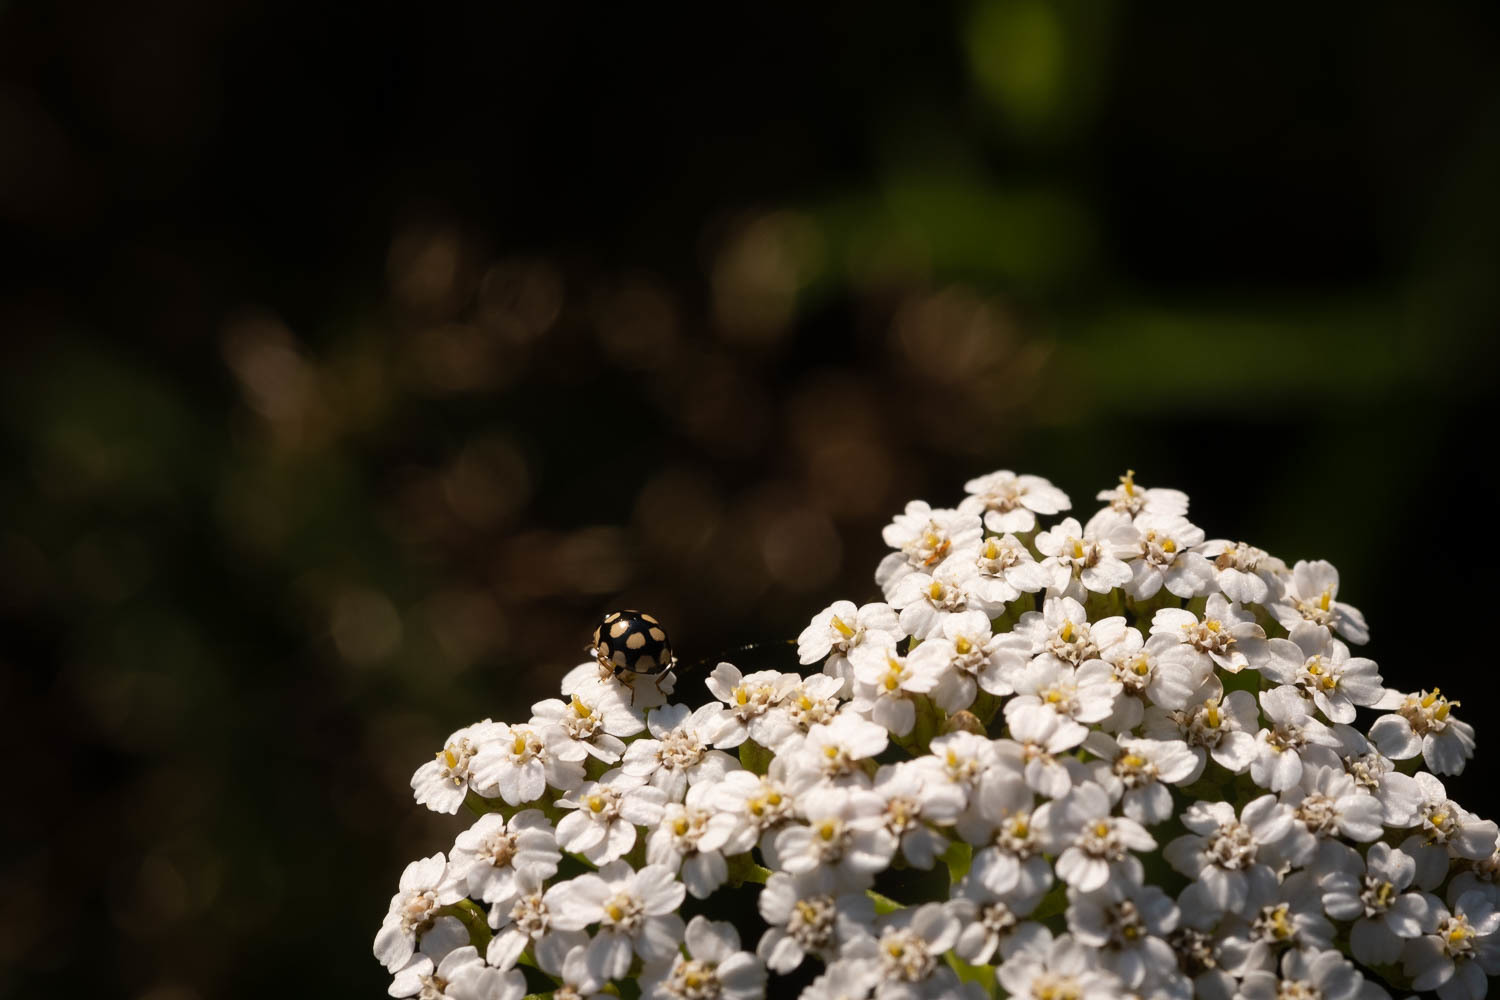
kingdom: Animalia
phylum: Arthropoda
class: Insecta
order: Coleoptera
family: Coccinellidae
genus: Coccinula
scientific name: Coccinula quatuordecimpustulata
